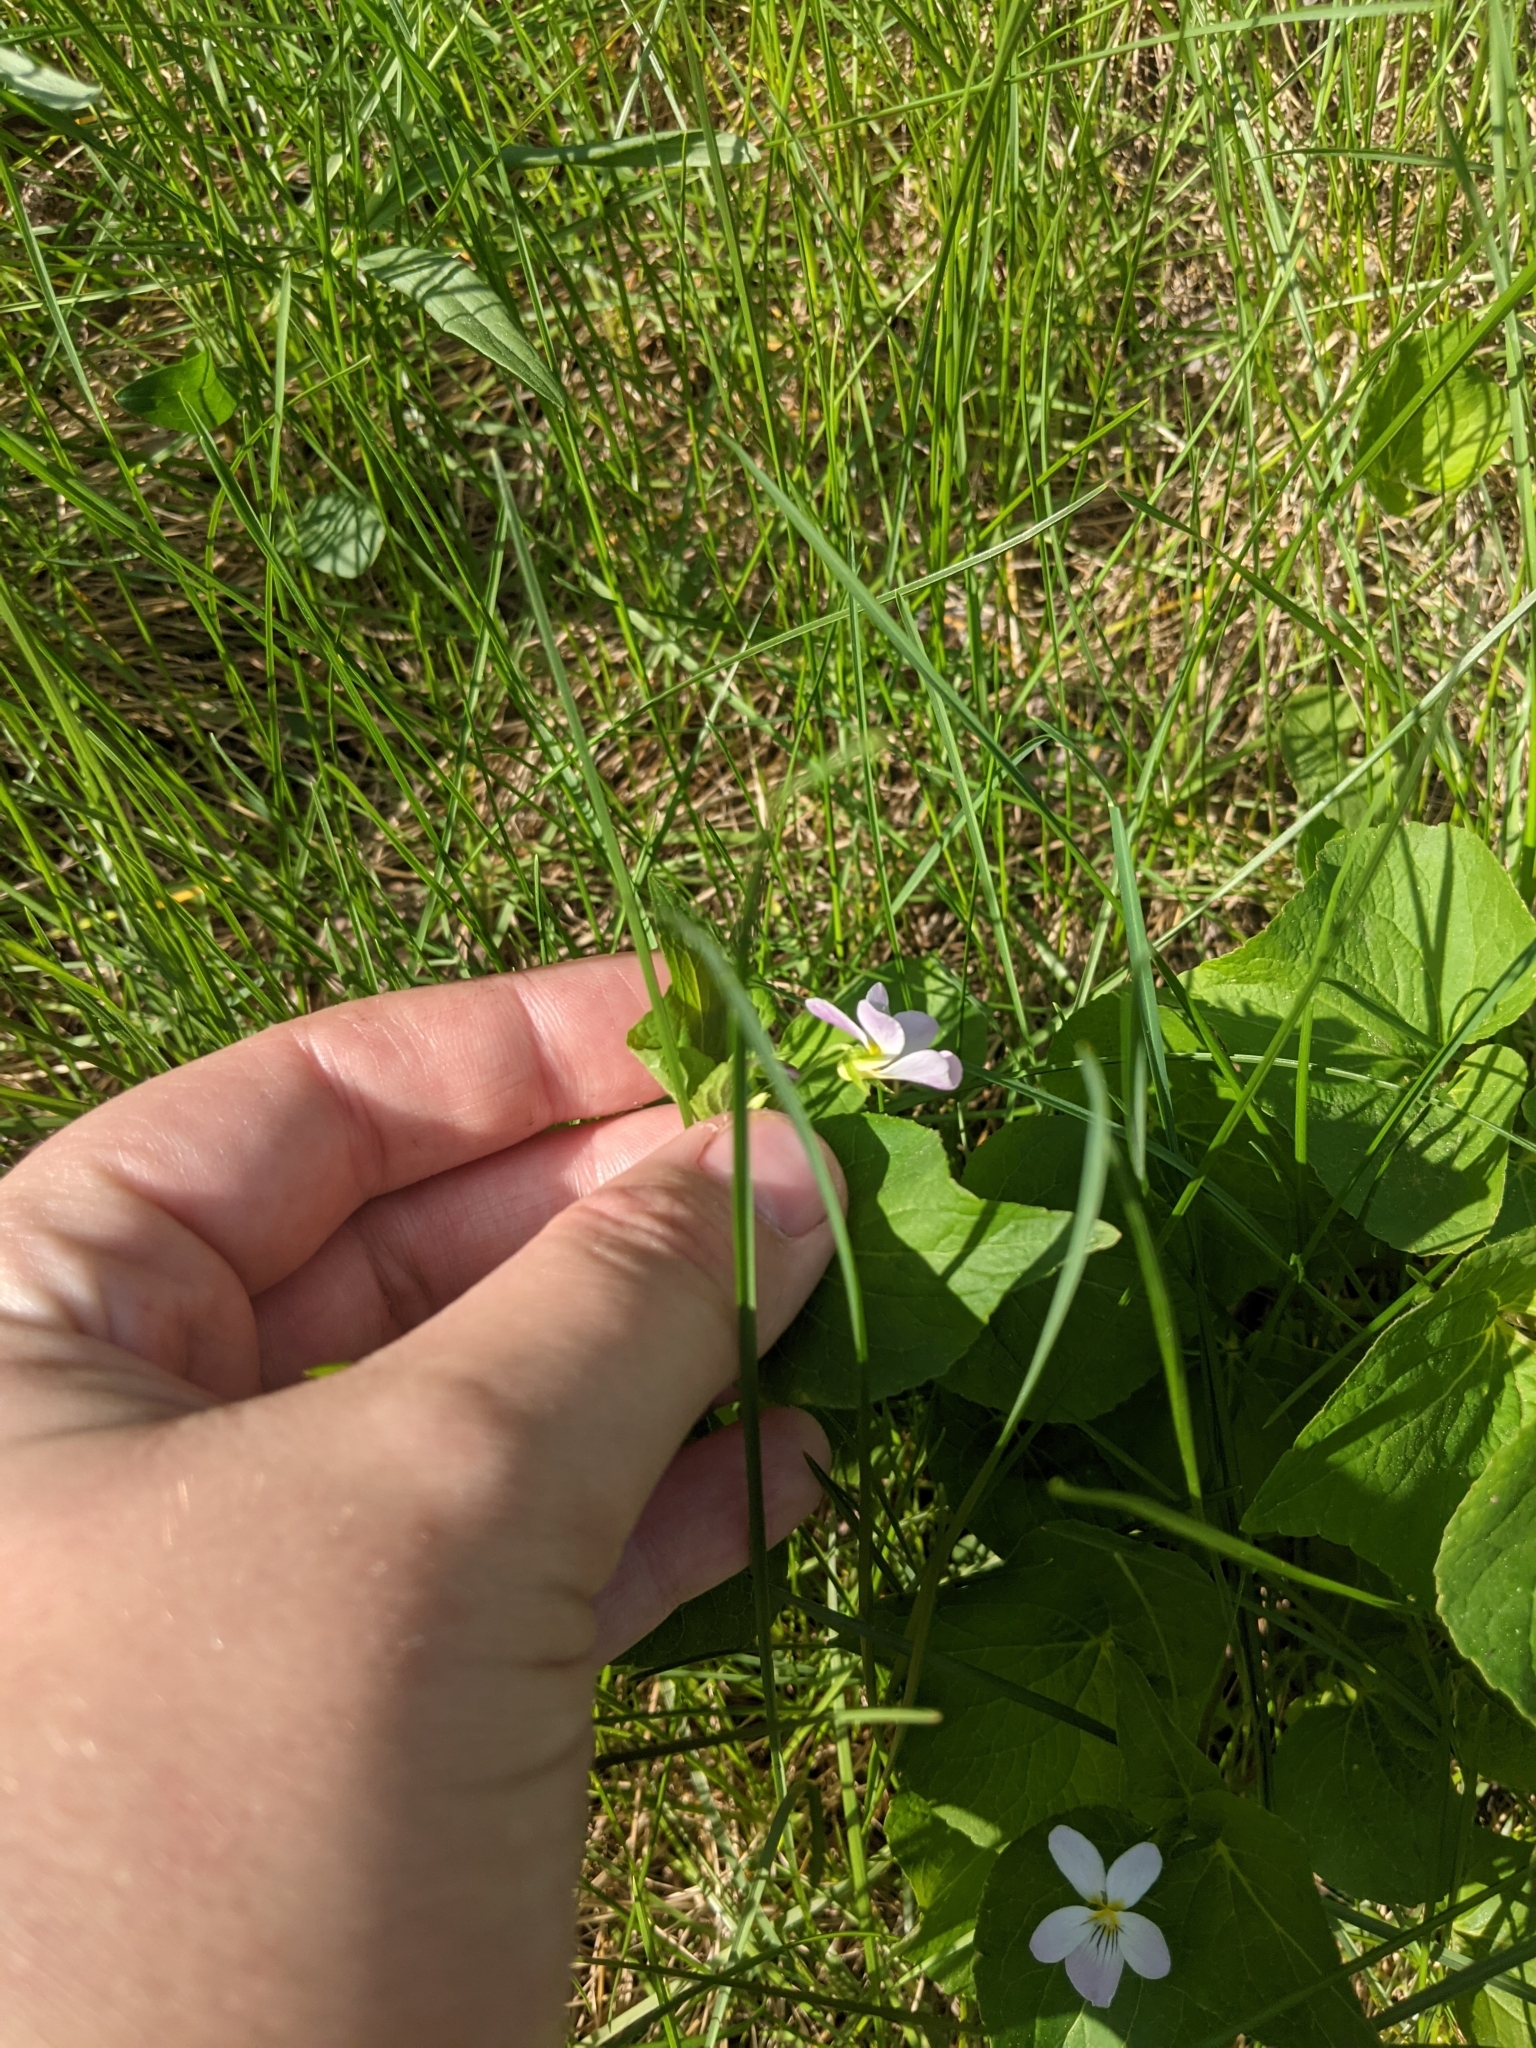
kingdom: Plantae
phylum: Tracheophyta
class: Magnoliopsida
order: Malpighiales
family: Violaceae
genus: Viola
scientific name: Viola scopulorum
